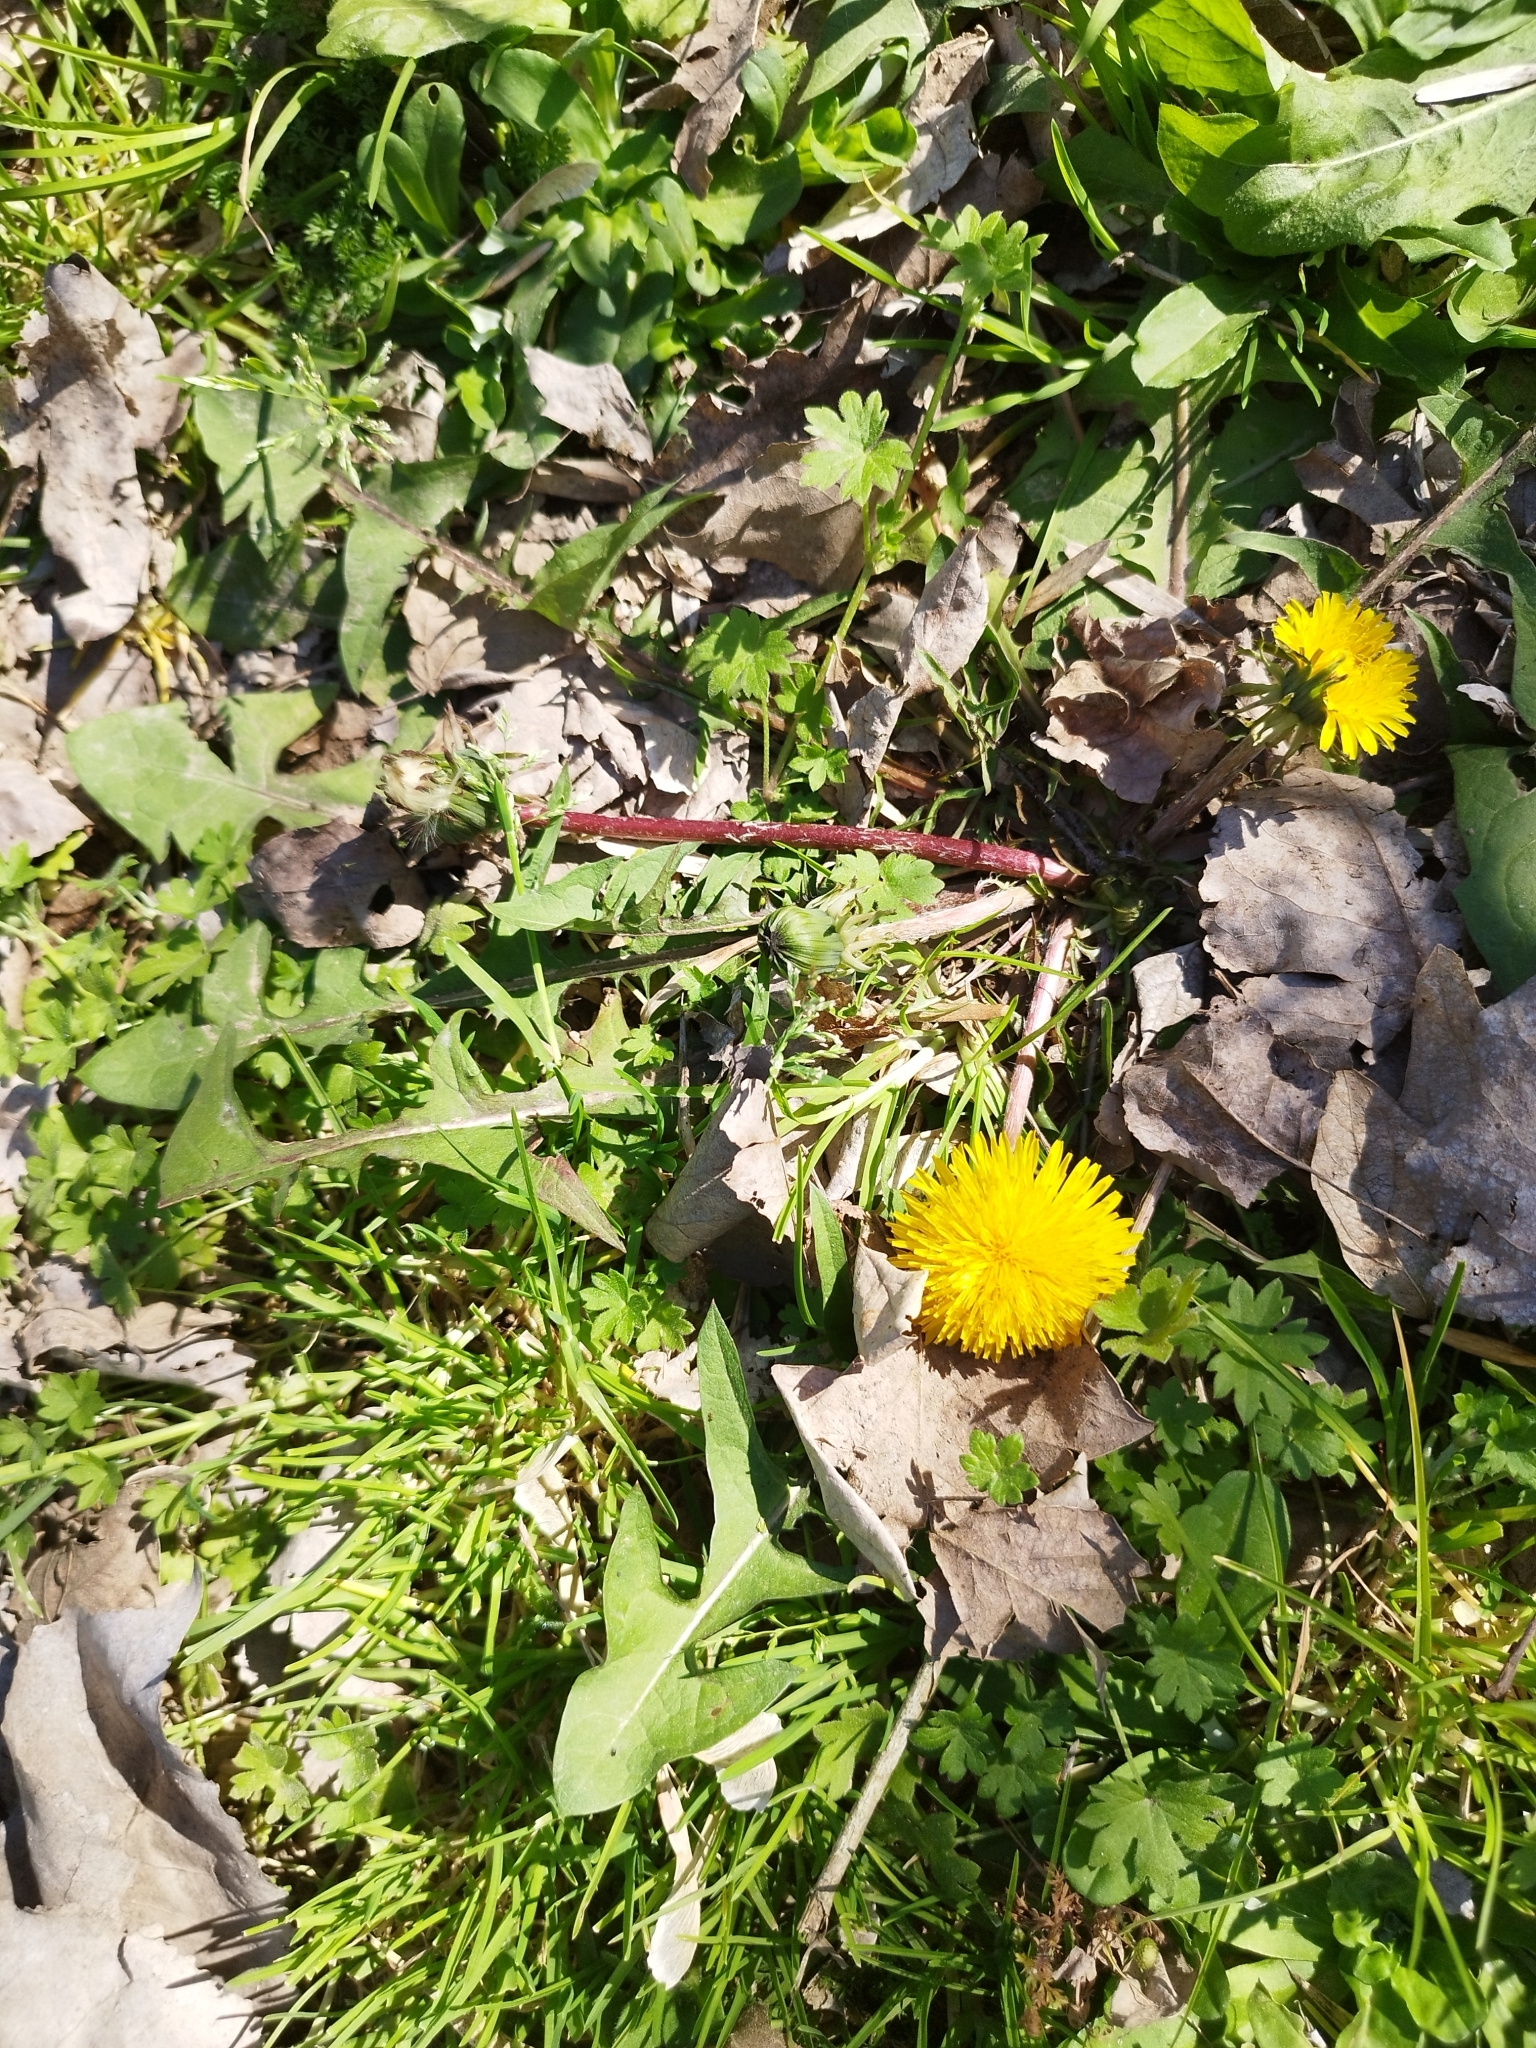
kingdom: Plantae
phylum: Tracheophyta
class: Magnoliopsida
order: Asterales
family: Asteraceae
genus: Taraxacum
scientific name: Taraxacum officinale
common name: Common dandelion
